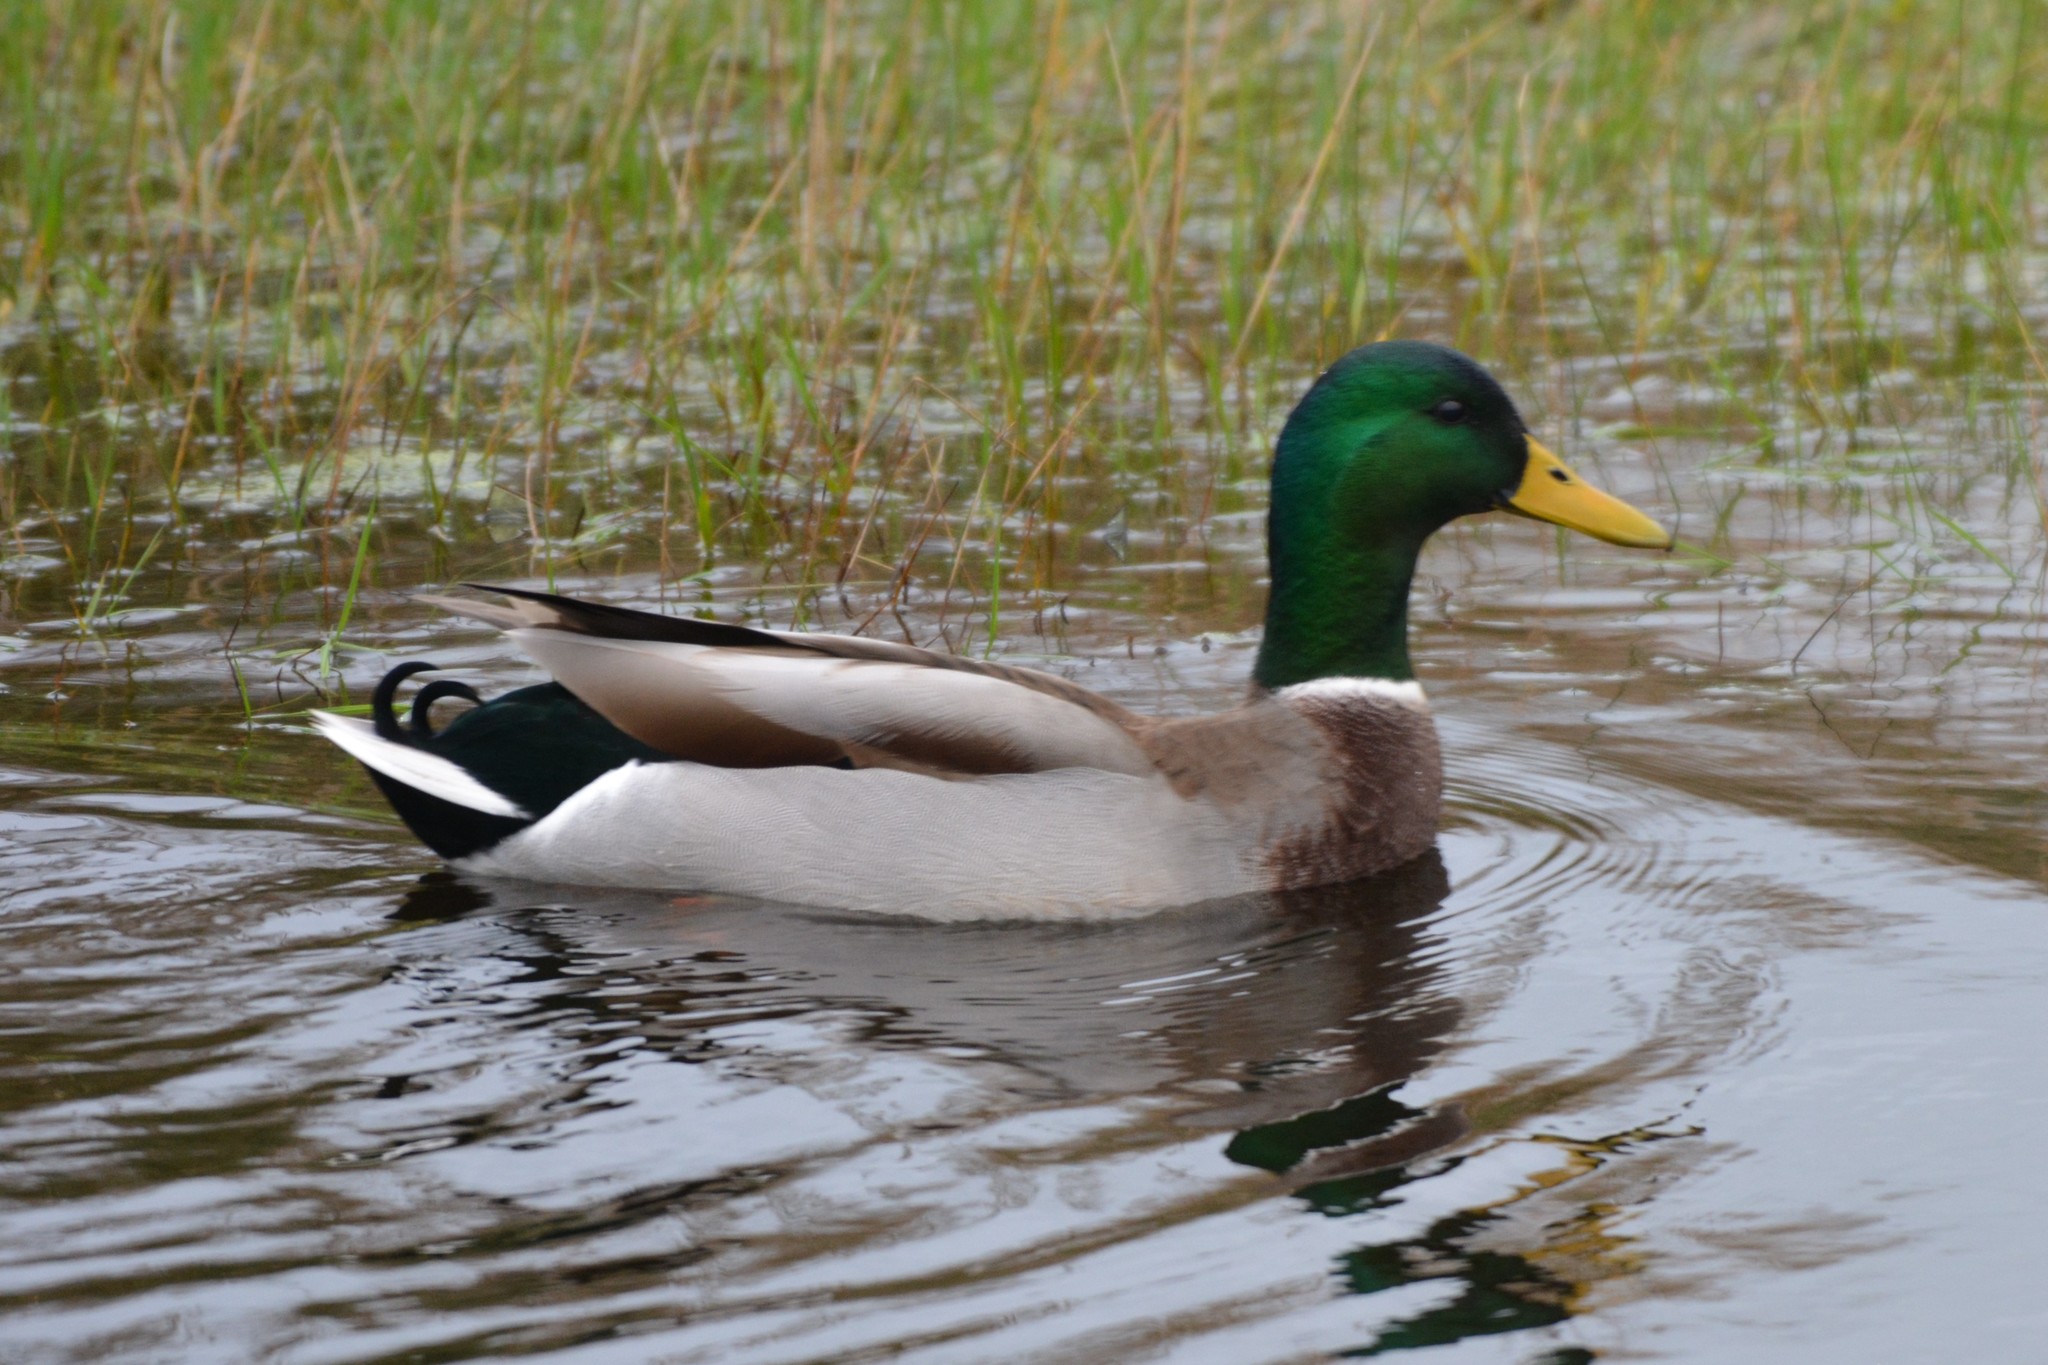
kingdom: Animalia
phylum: Chordata
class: Aves
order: Anseriformes
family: Anatidae
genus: Anas
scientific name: Anas platyrhynchos
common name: Mallard
